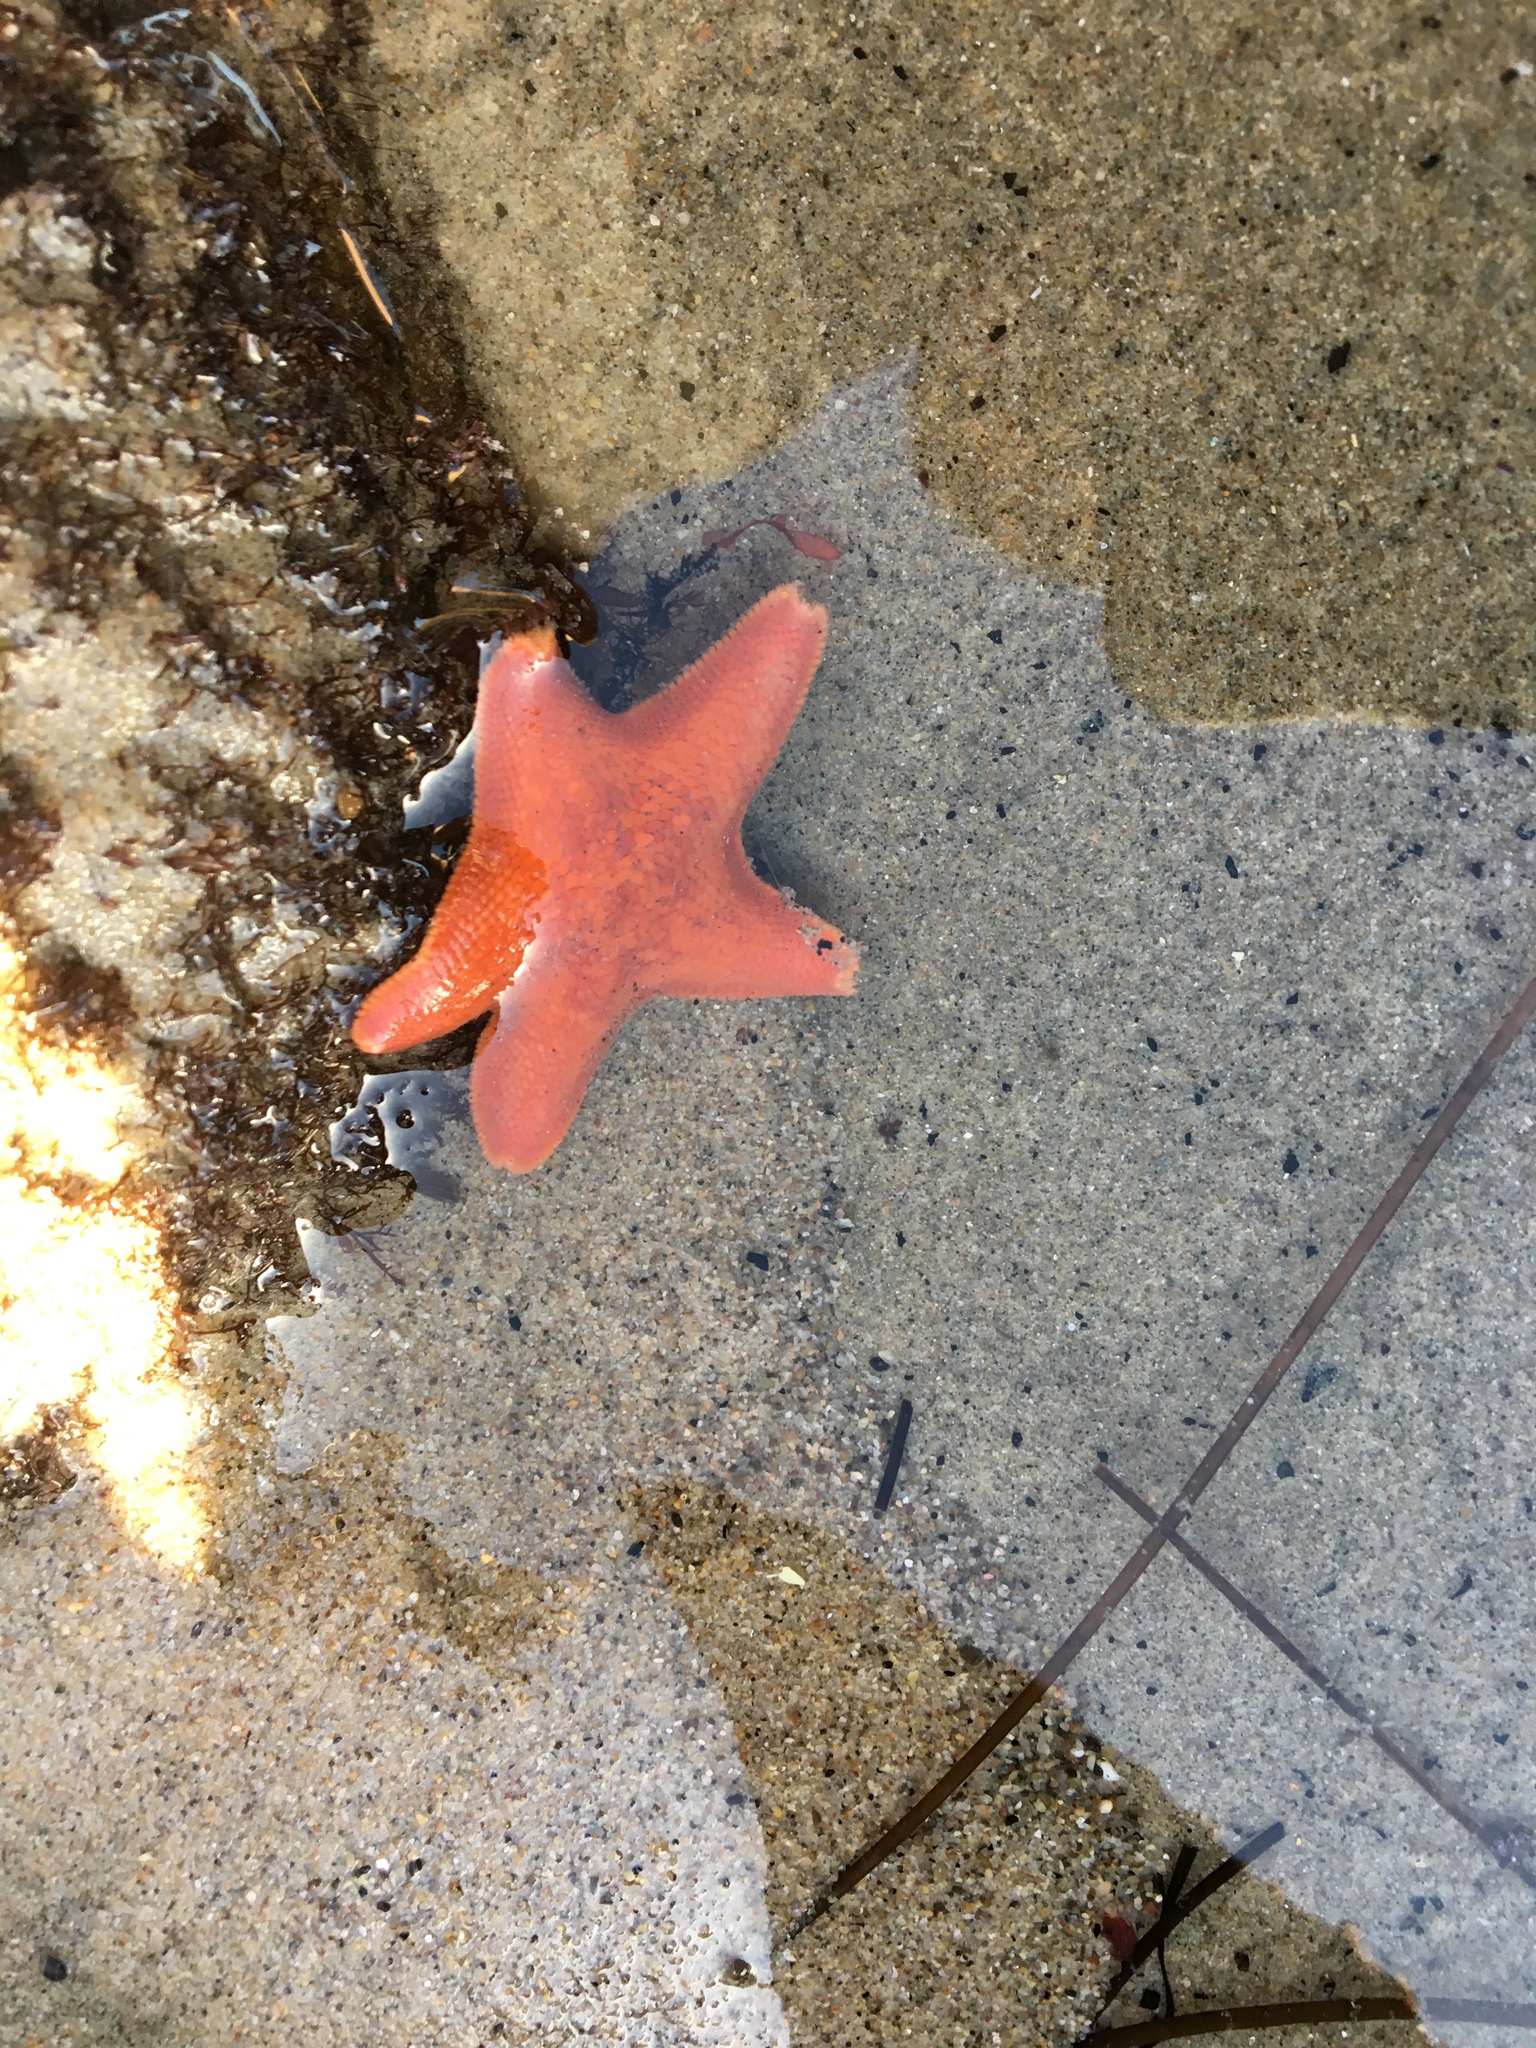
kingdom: Animalia
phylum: Echinodermata
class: Asteroidea
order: Valvatida
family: Asterinidae
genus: Patiria
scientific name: Patiria miniata
